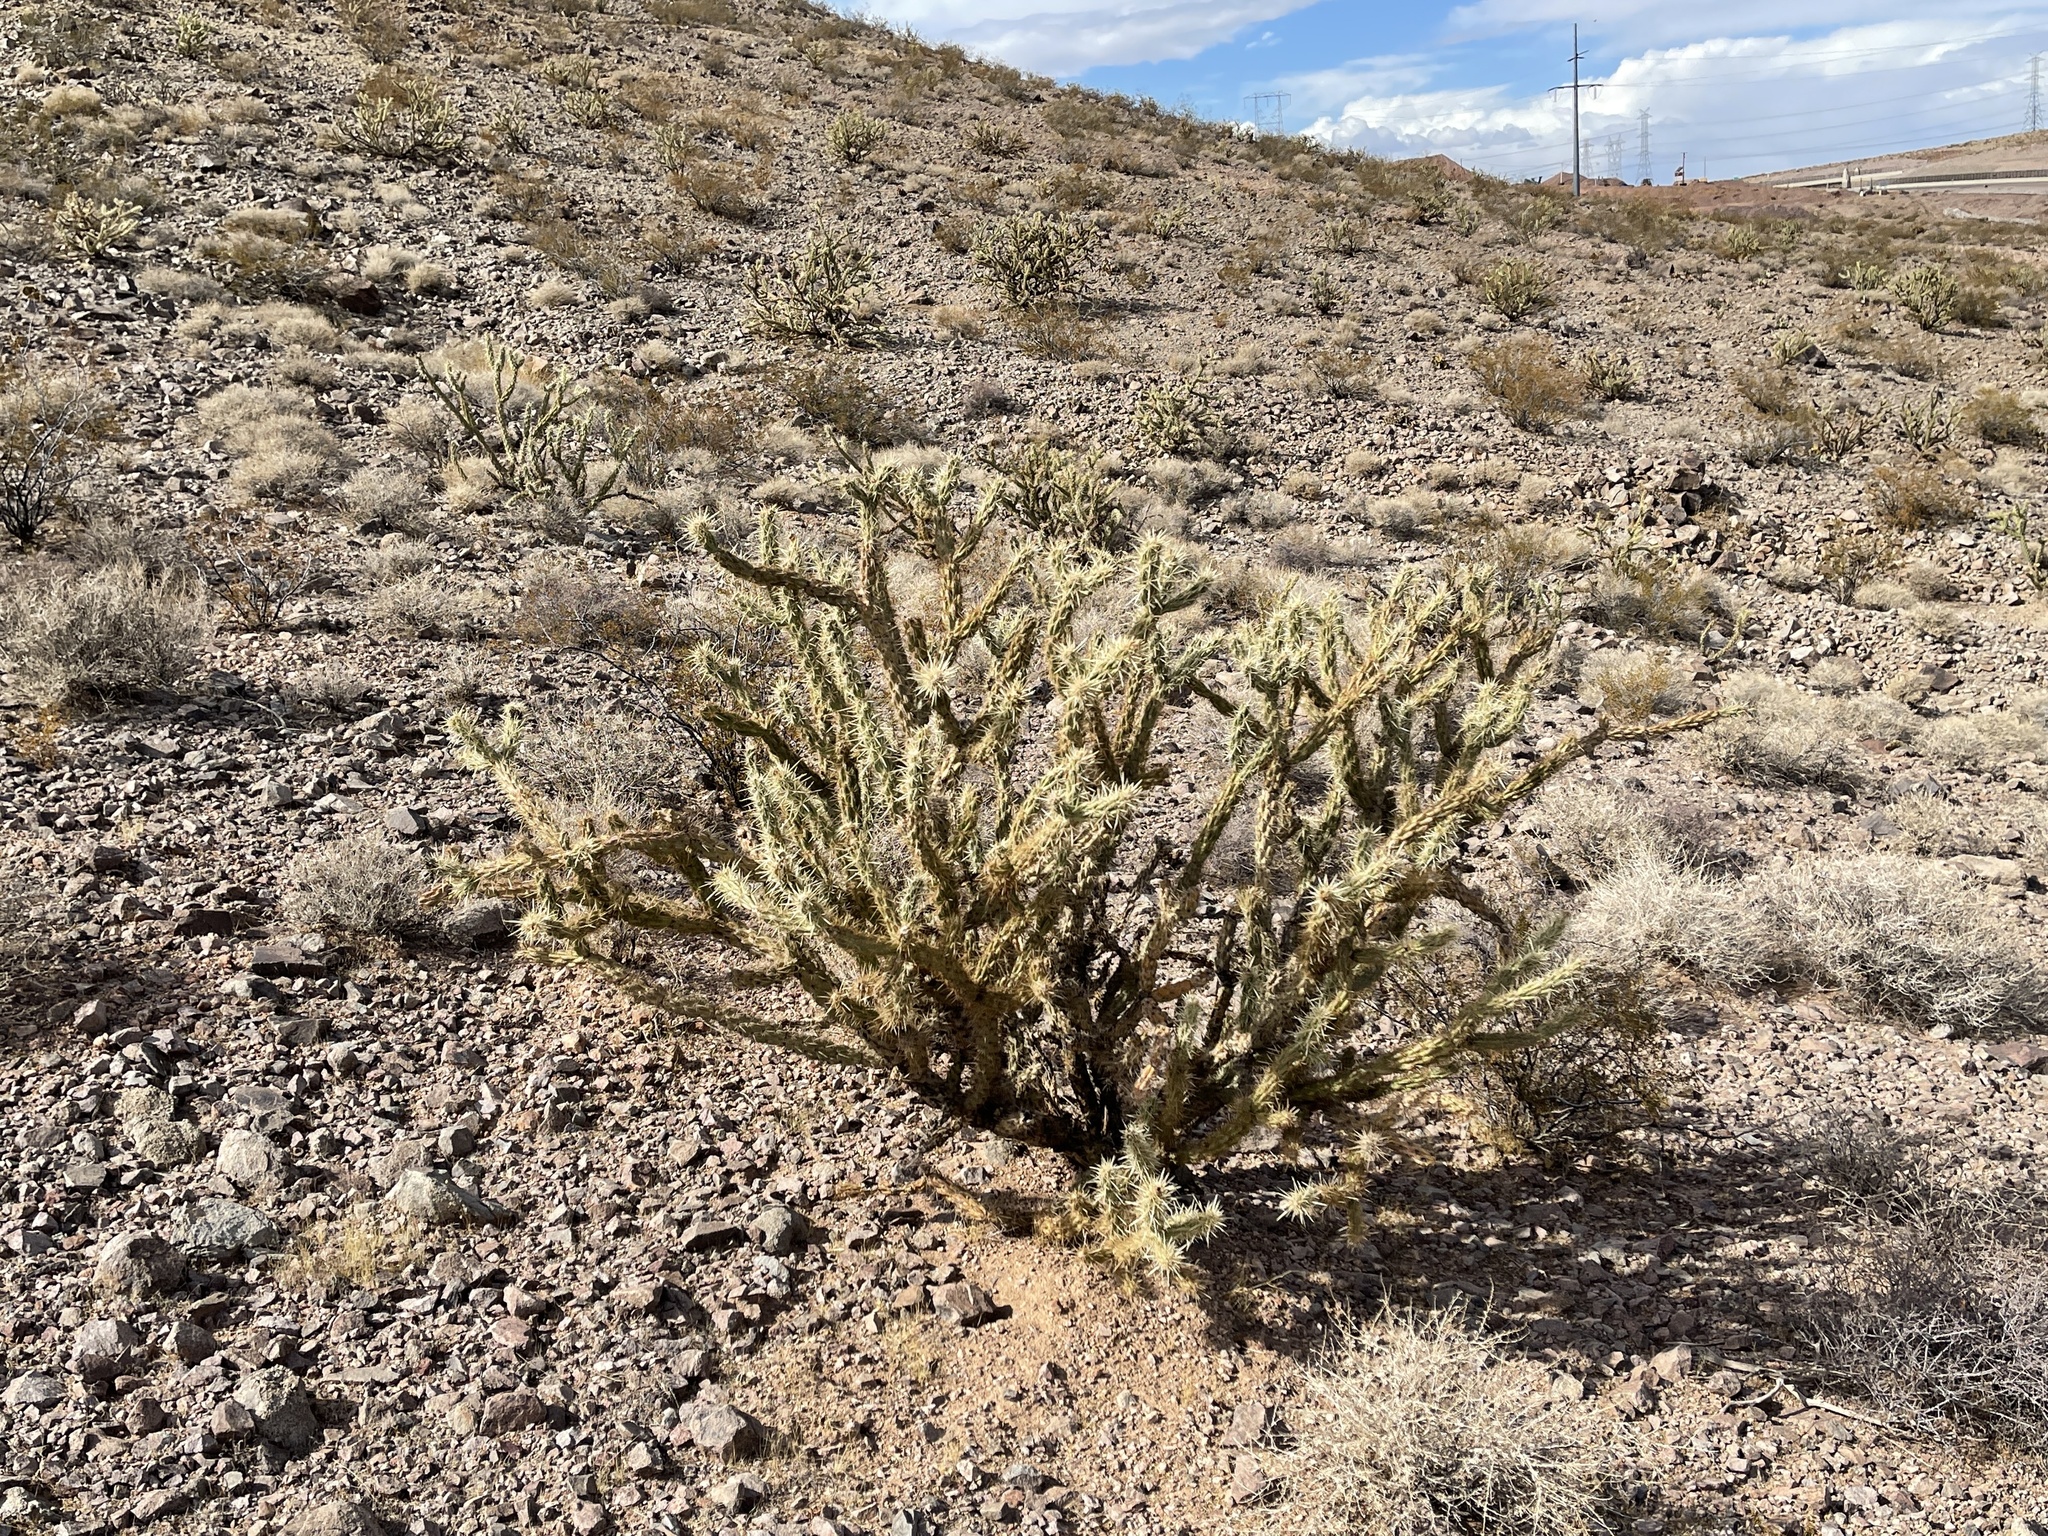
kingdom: Plantae
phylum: Tracheophyta
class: Magnoliopsida
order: Caryophyllales
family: Cactaceae
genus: Cylindropuntia
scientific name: Cylindropuntia acanthocarpa
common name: Buckhorn cholla
